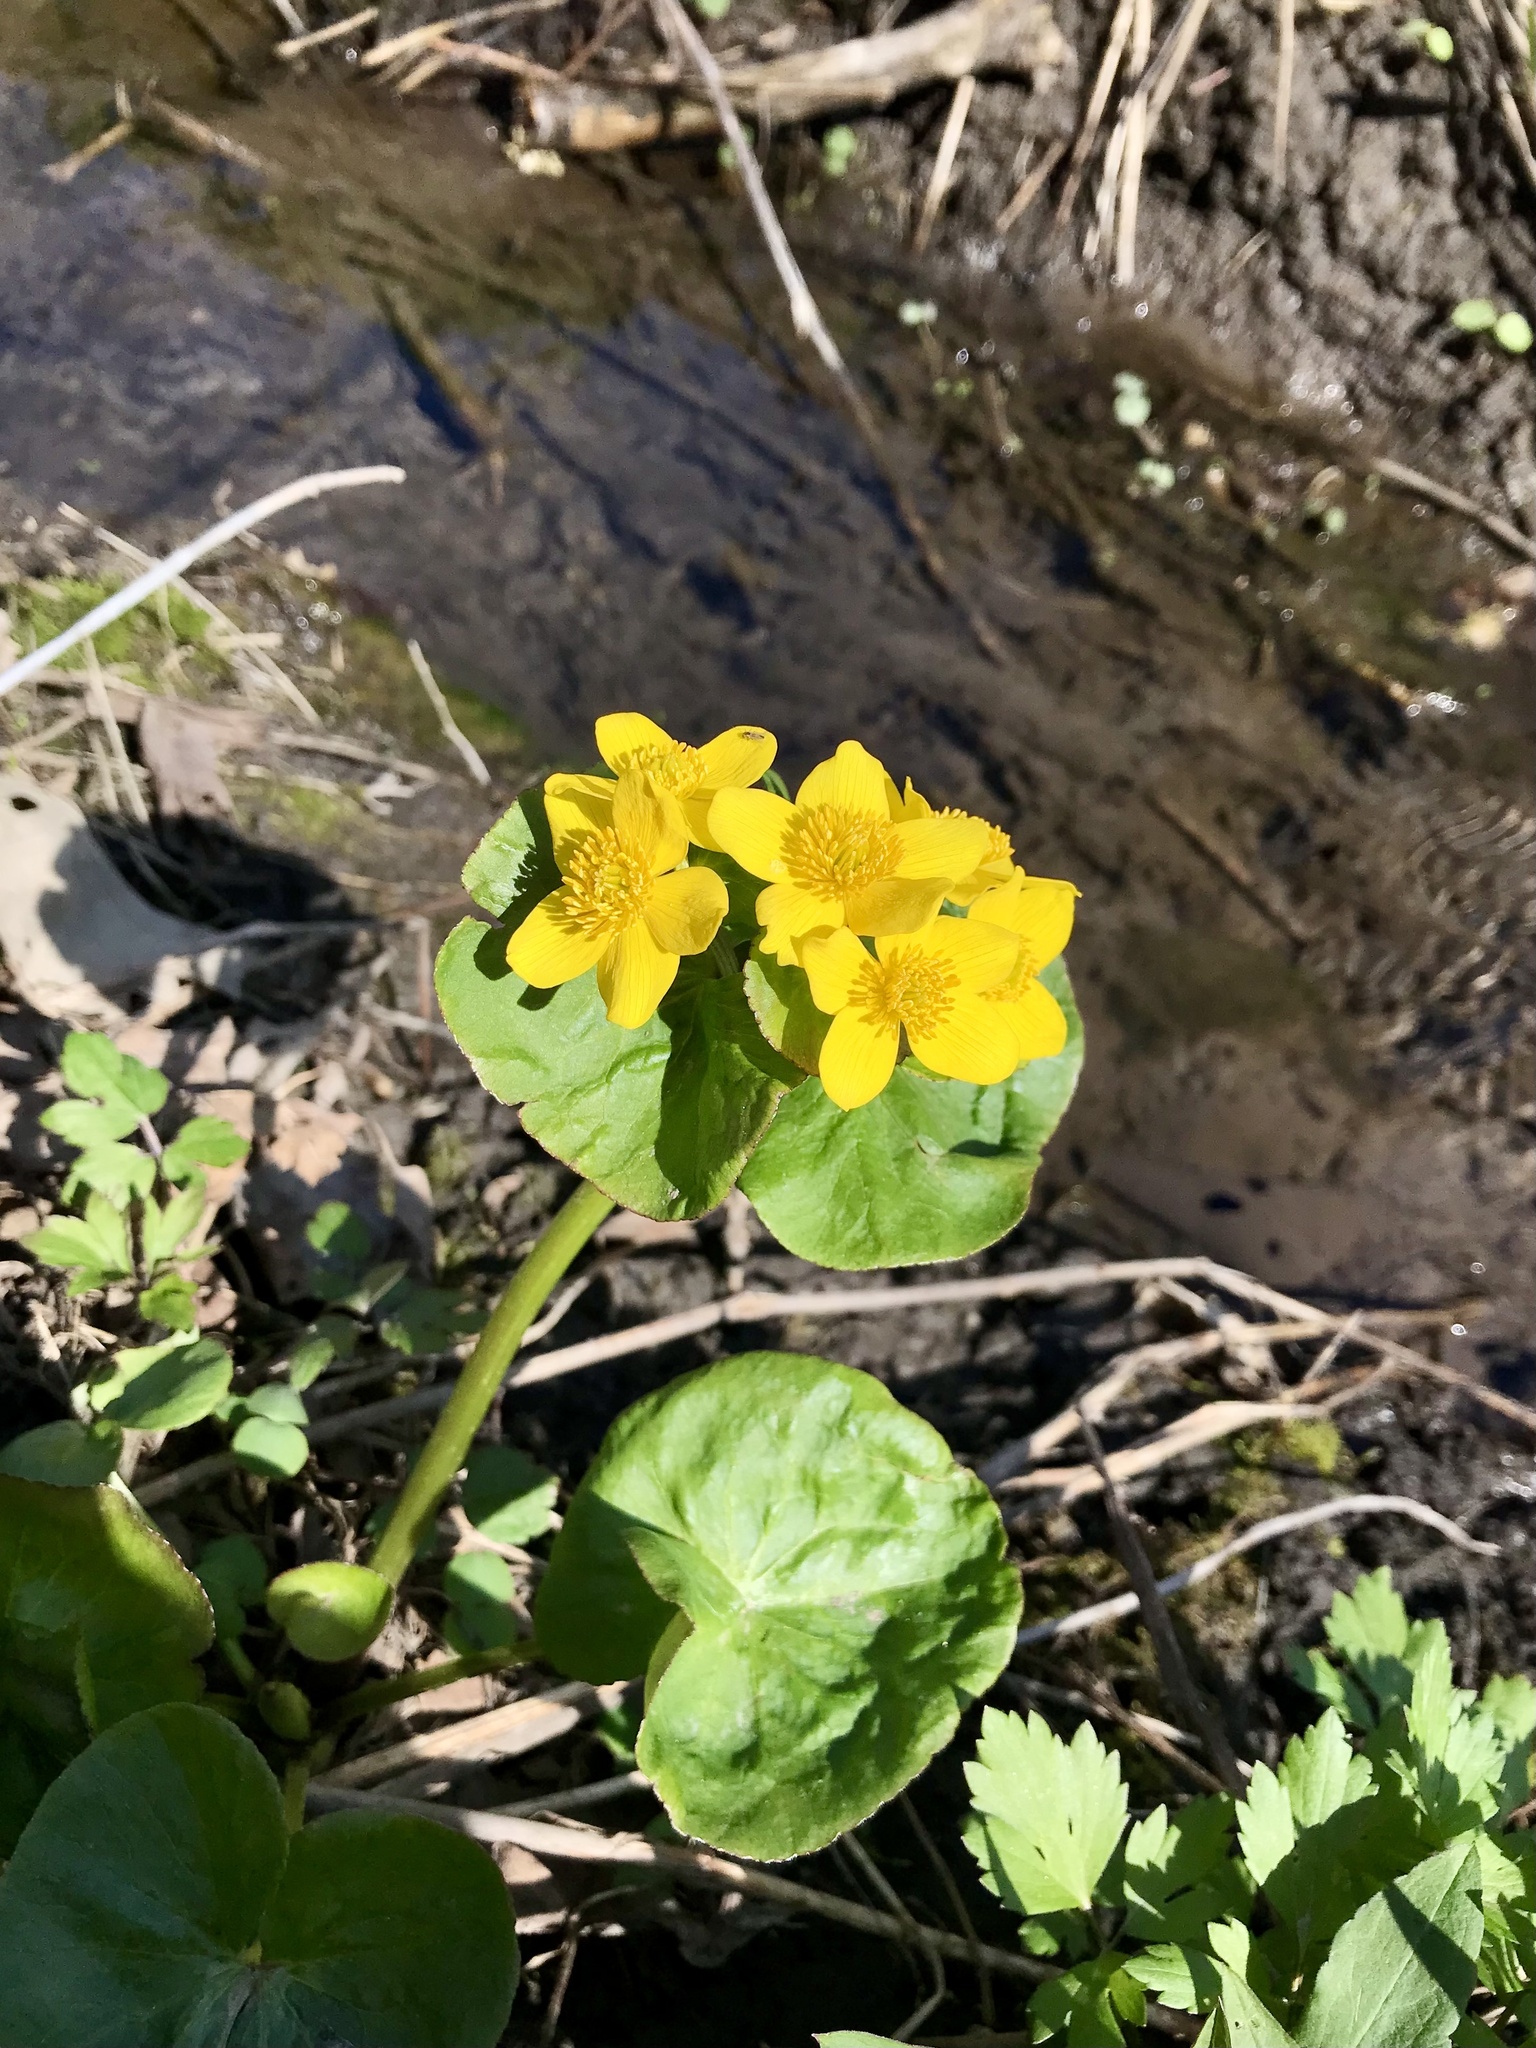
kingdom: Plantae
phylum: Tracheophyta
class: Magnoliopsida
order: Ranunculales
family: Ranunculaceae
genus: Caltha
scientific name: Caltha palustris
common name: Marsh marigold
